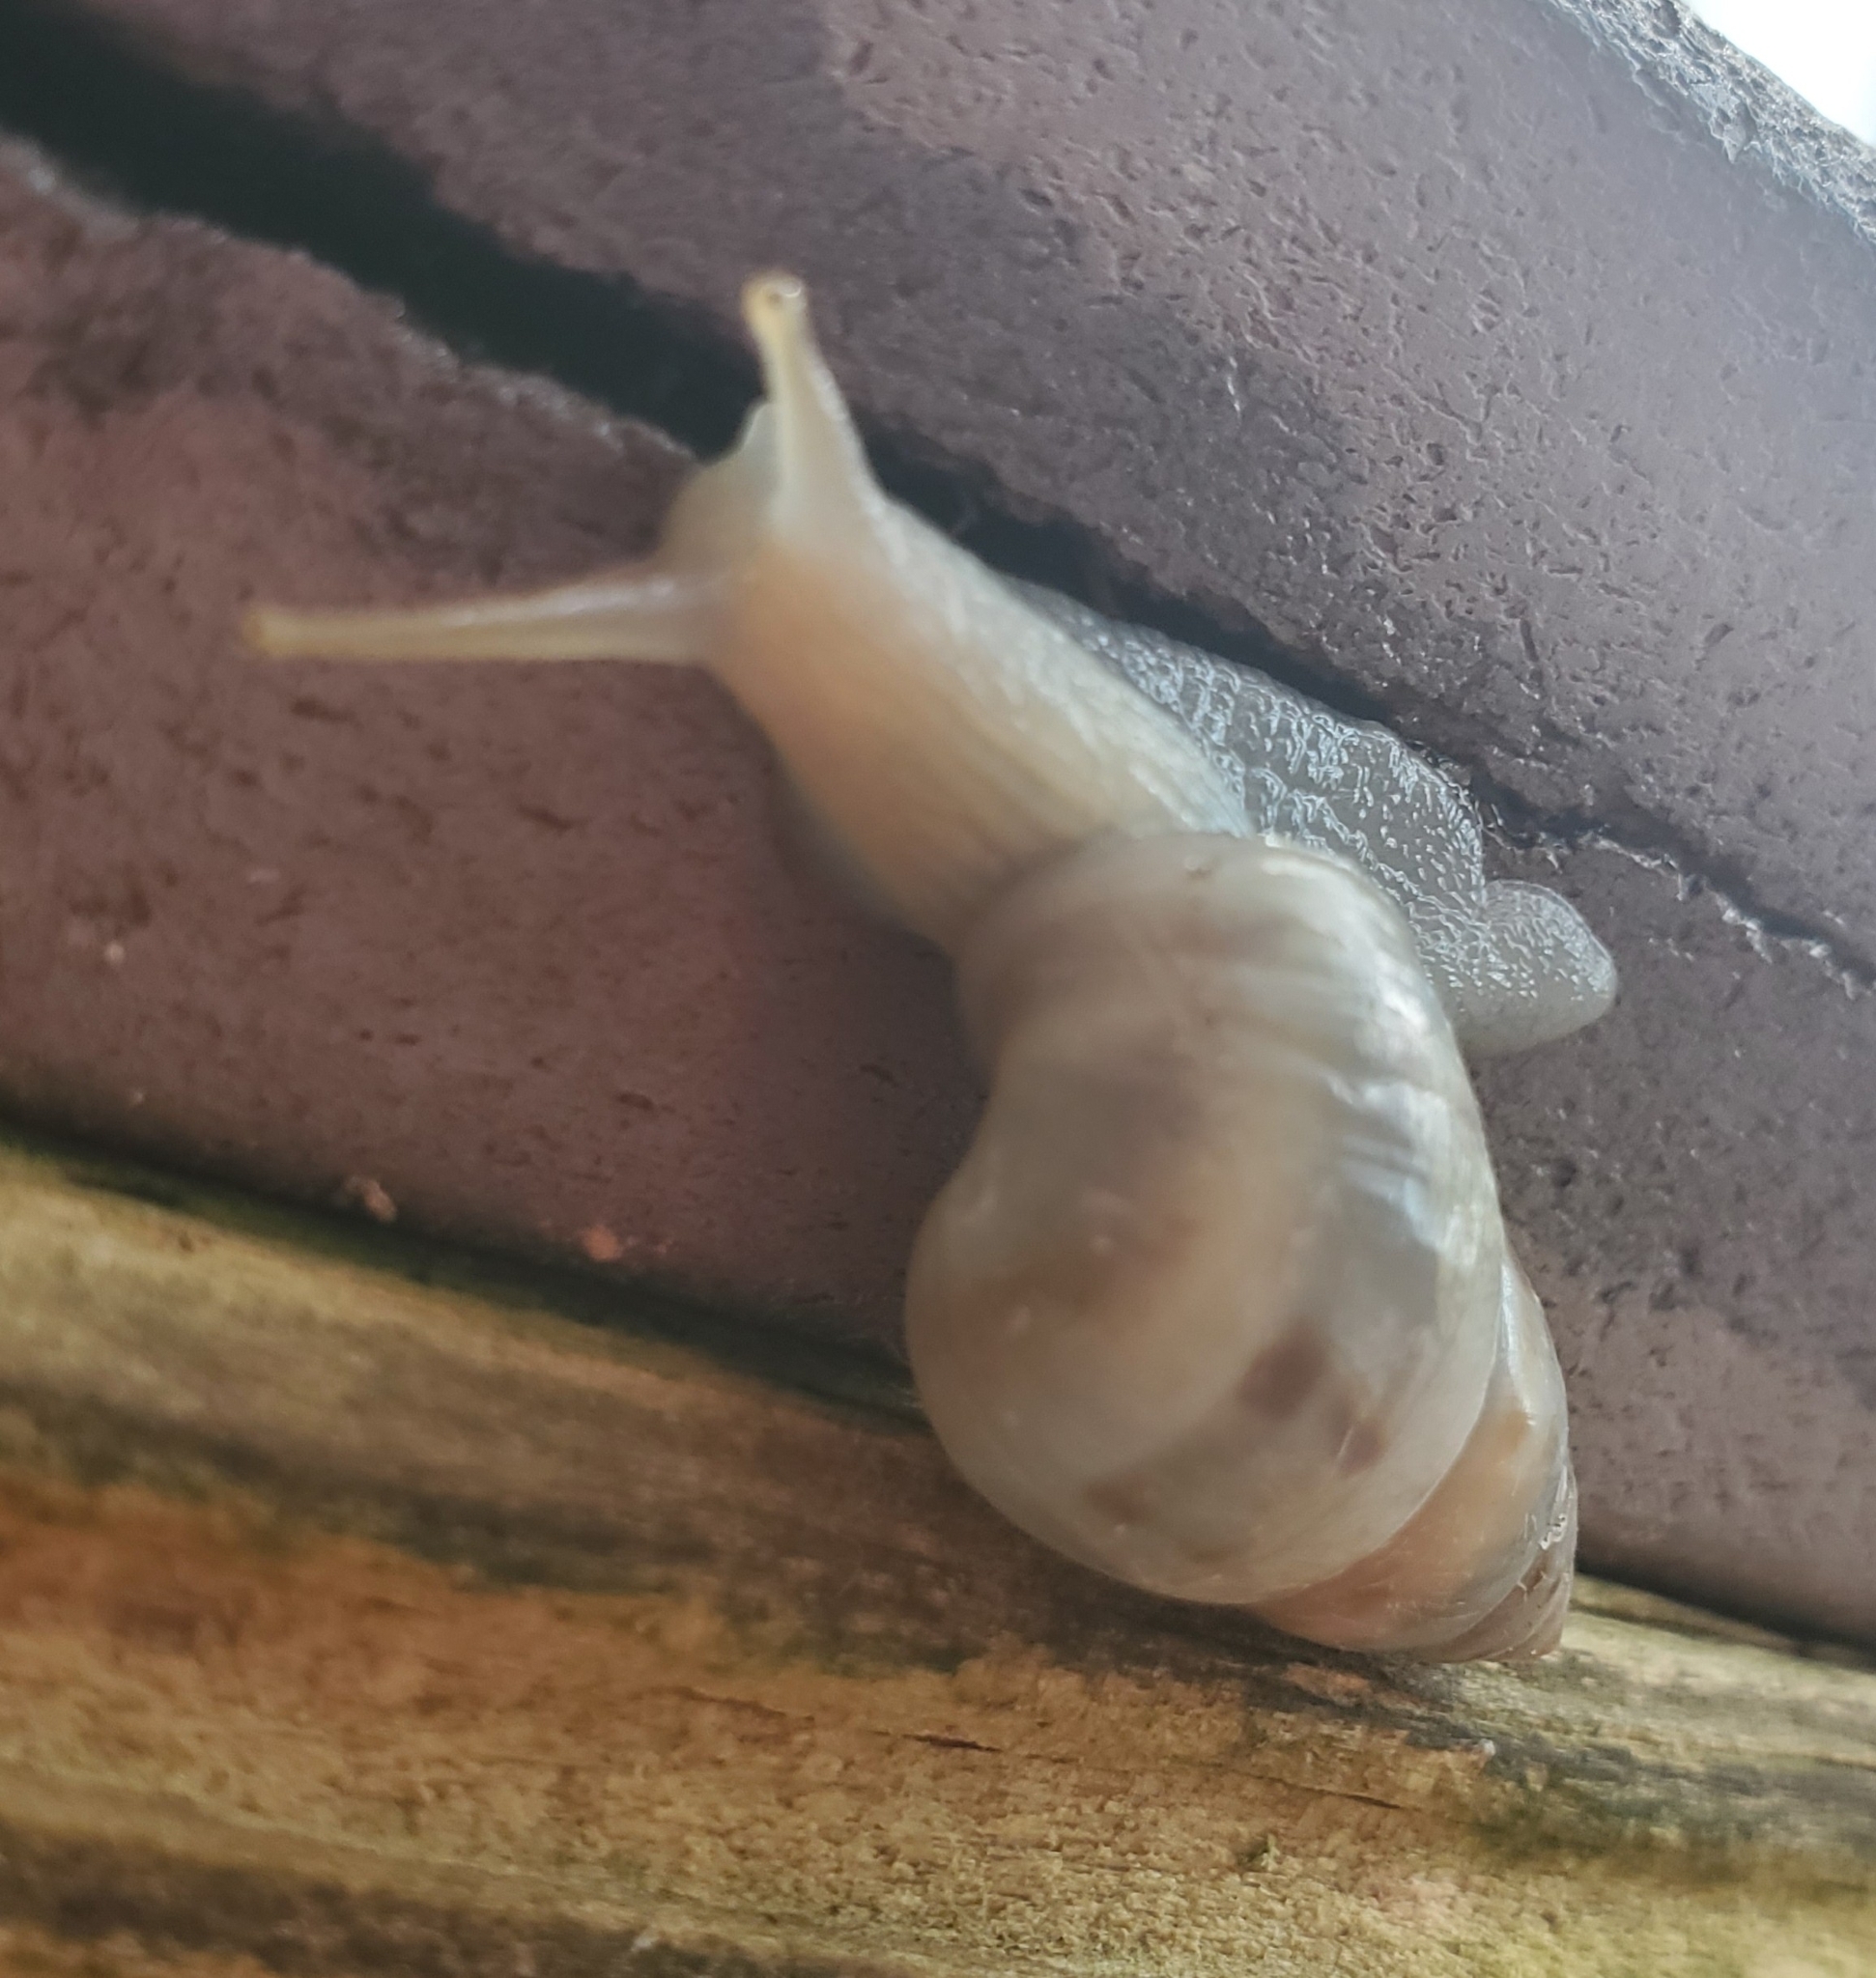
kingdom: Animalia
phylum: Mollusca
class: Gastropoda
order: Stylommatophora
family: Bulimulidae
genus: Drymaeus
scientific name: Drymaeus dormani
